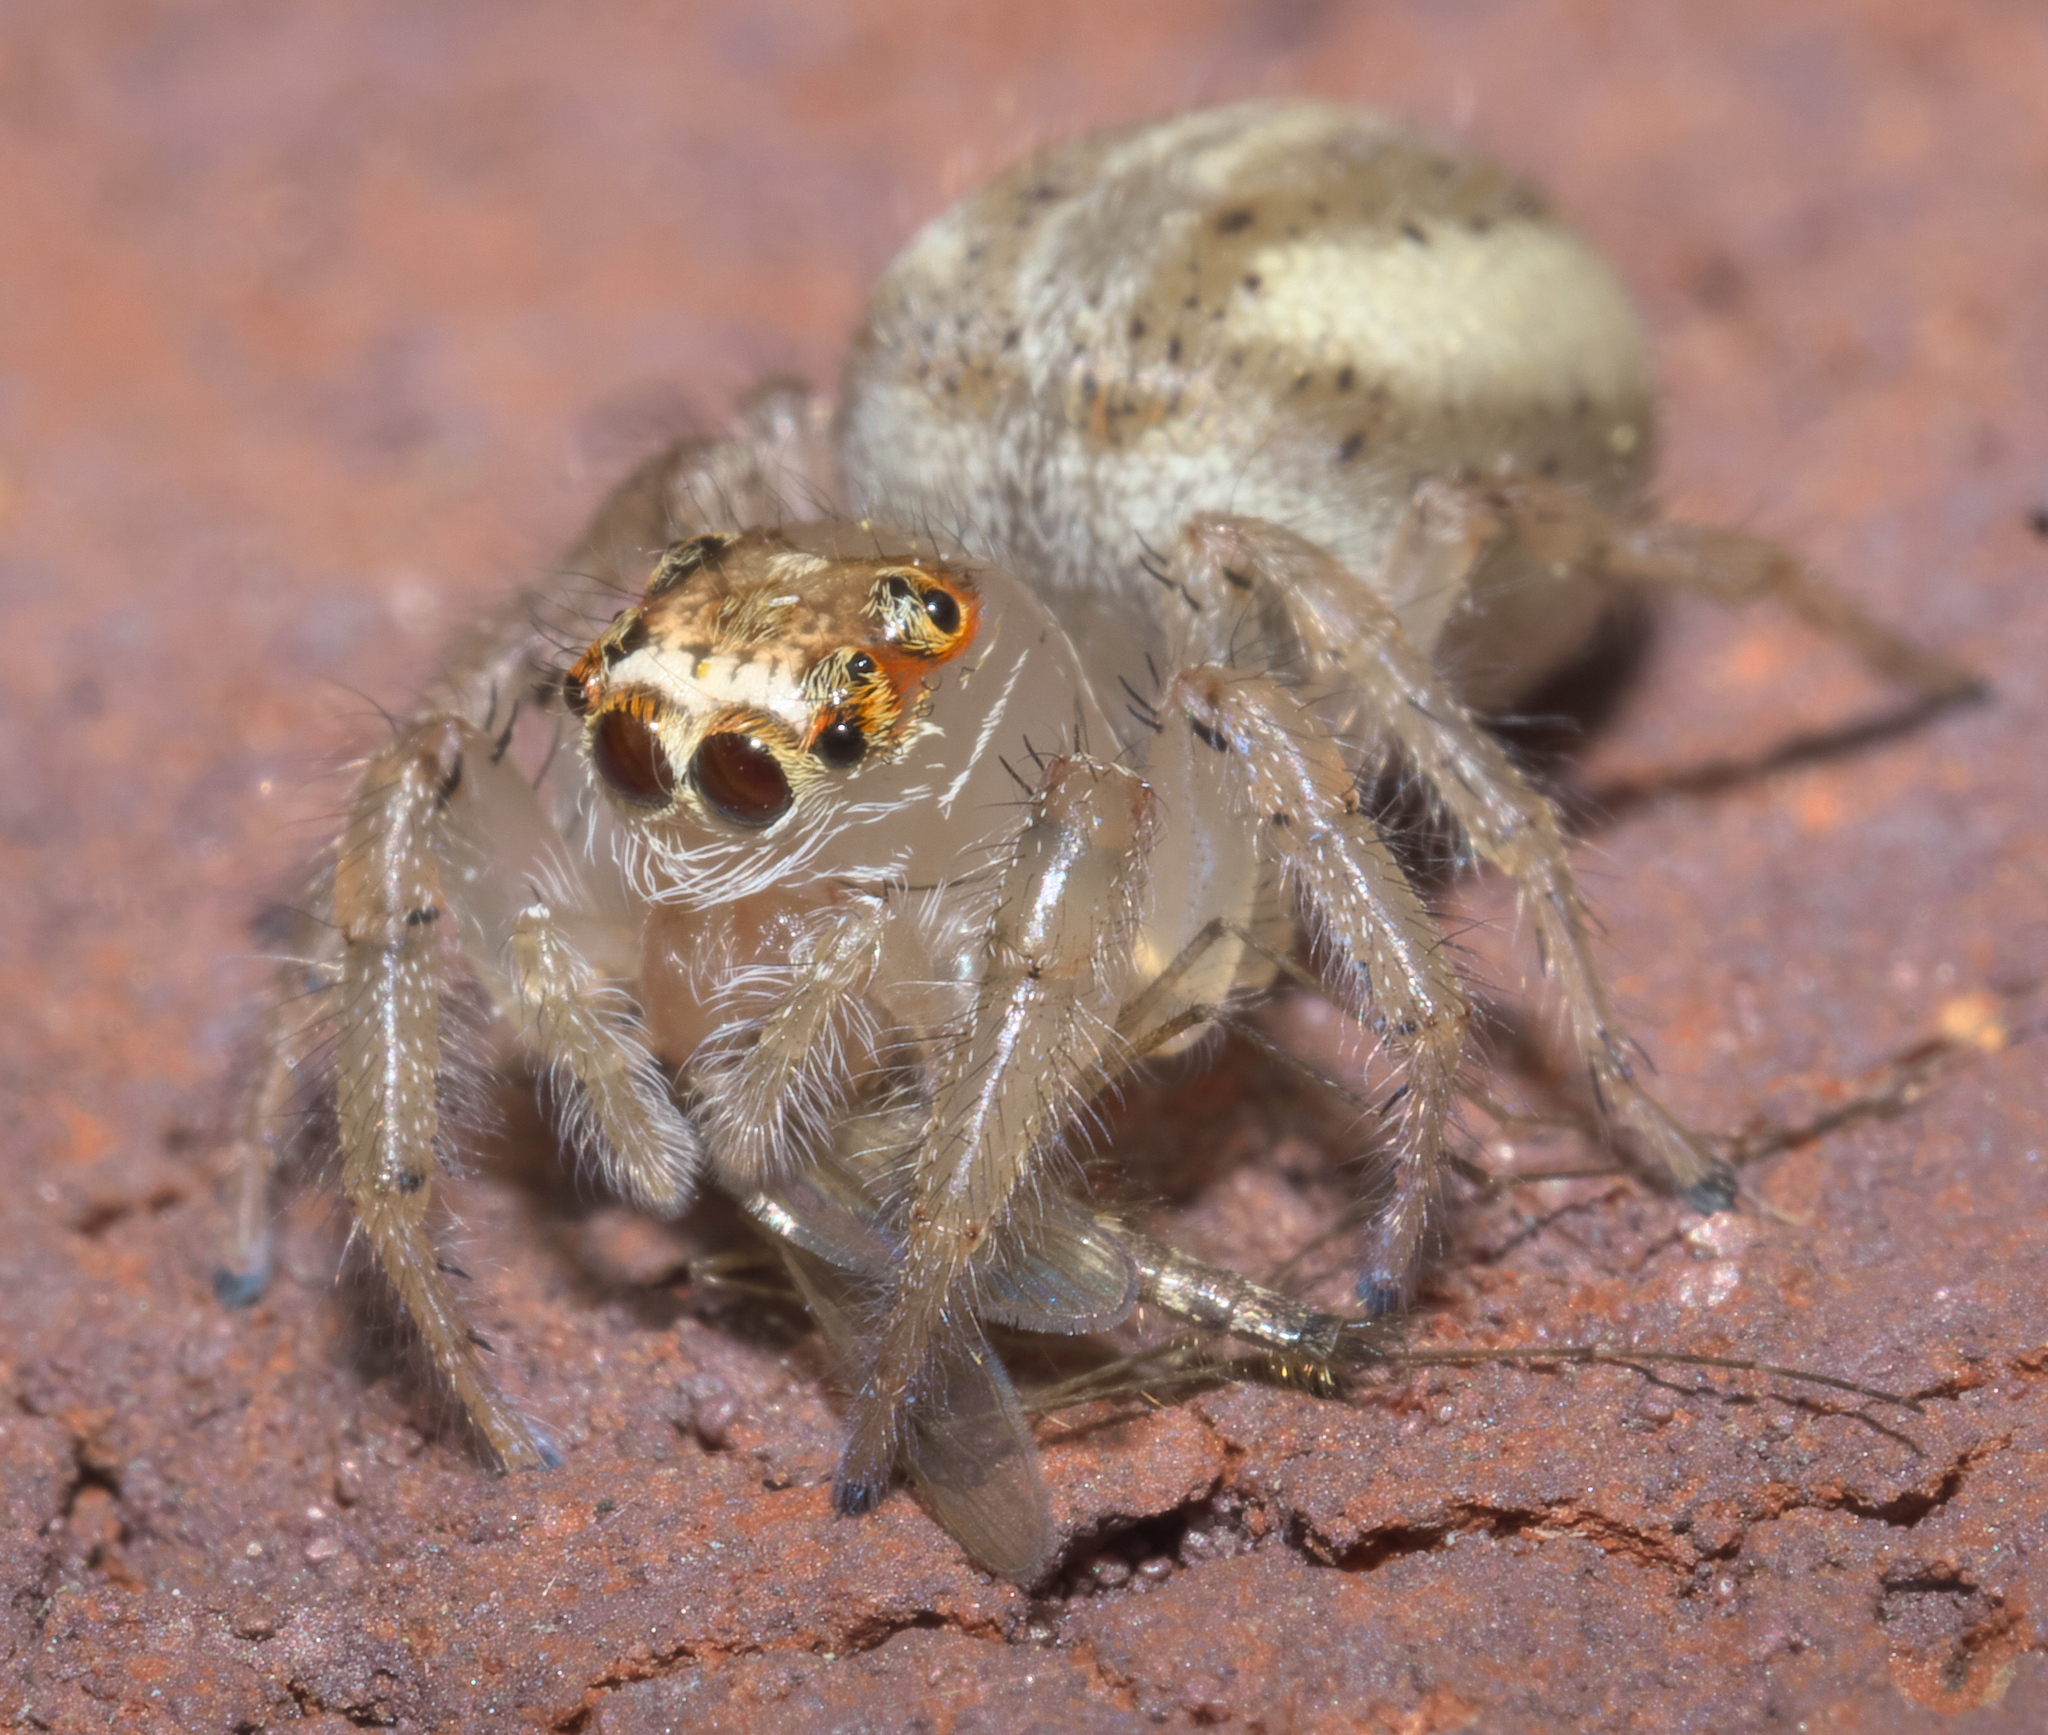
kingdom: Animalia
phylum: Arthropoda
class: Arachnida
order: Araneae
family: Salticidae
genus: Colonus
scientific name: Colonus sylvanus
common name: Jumping spiders
